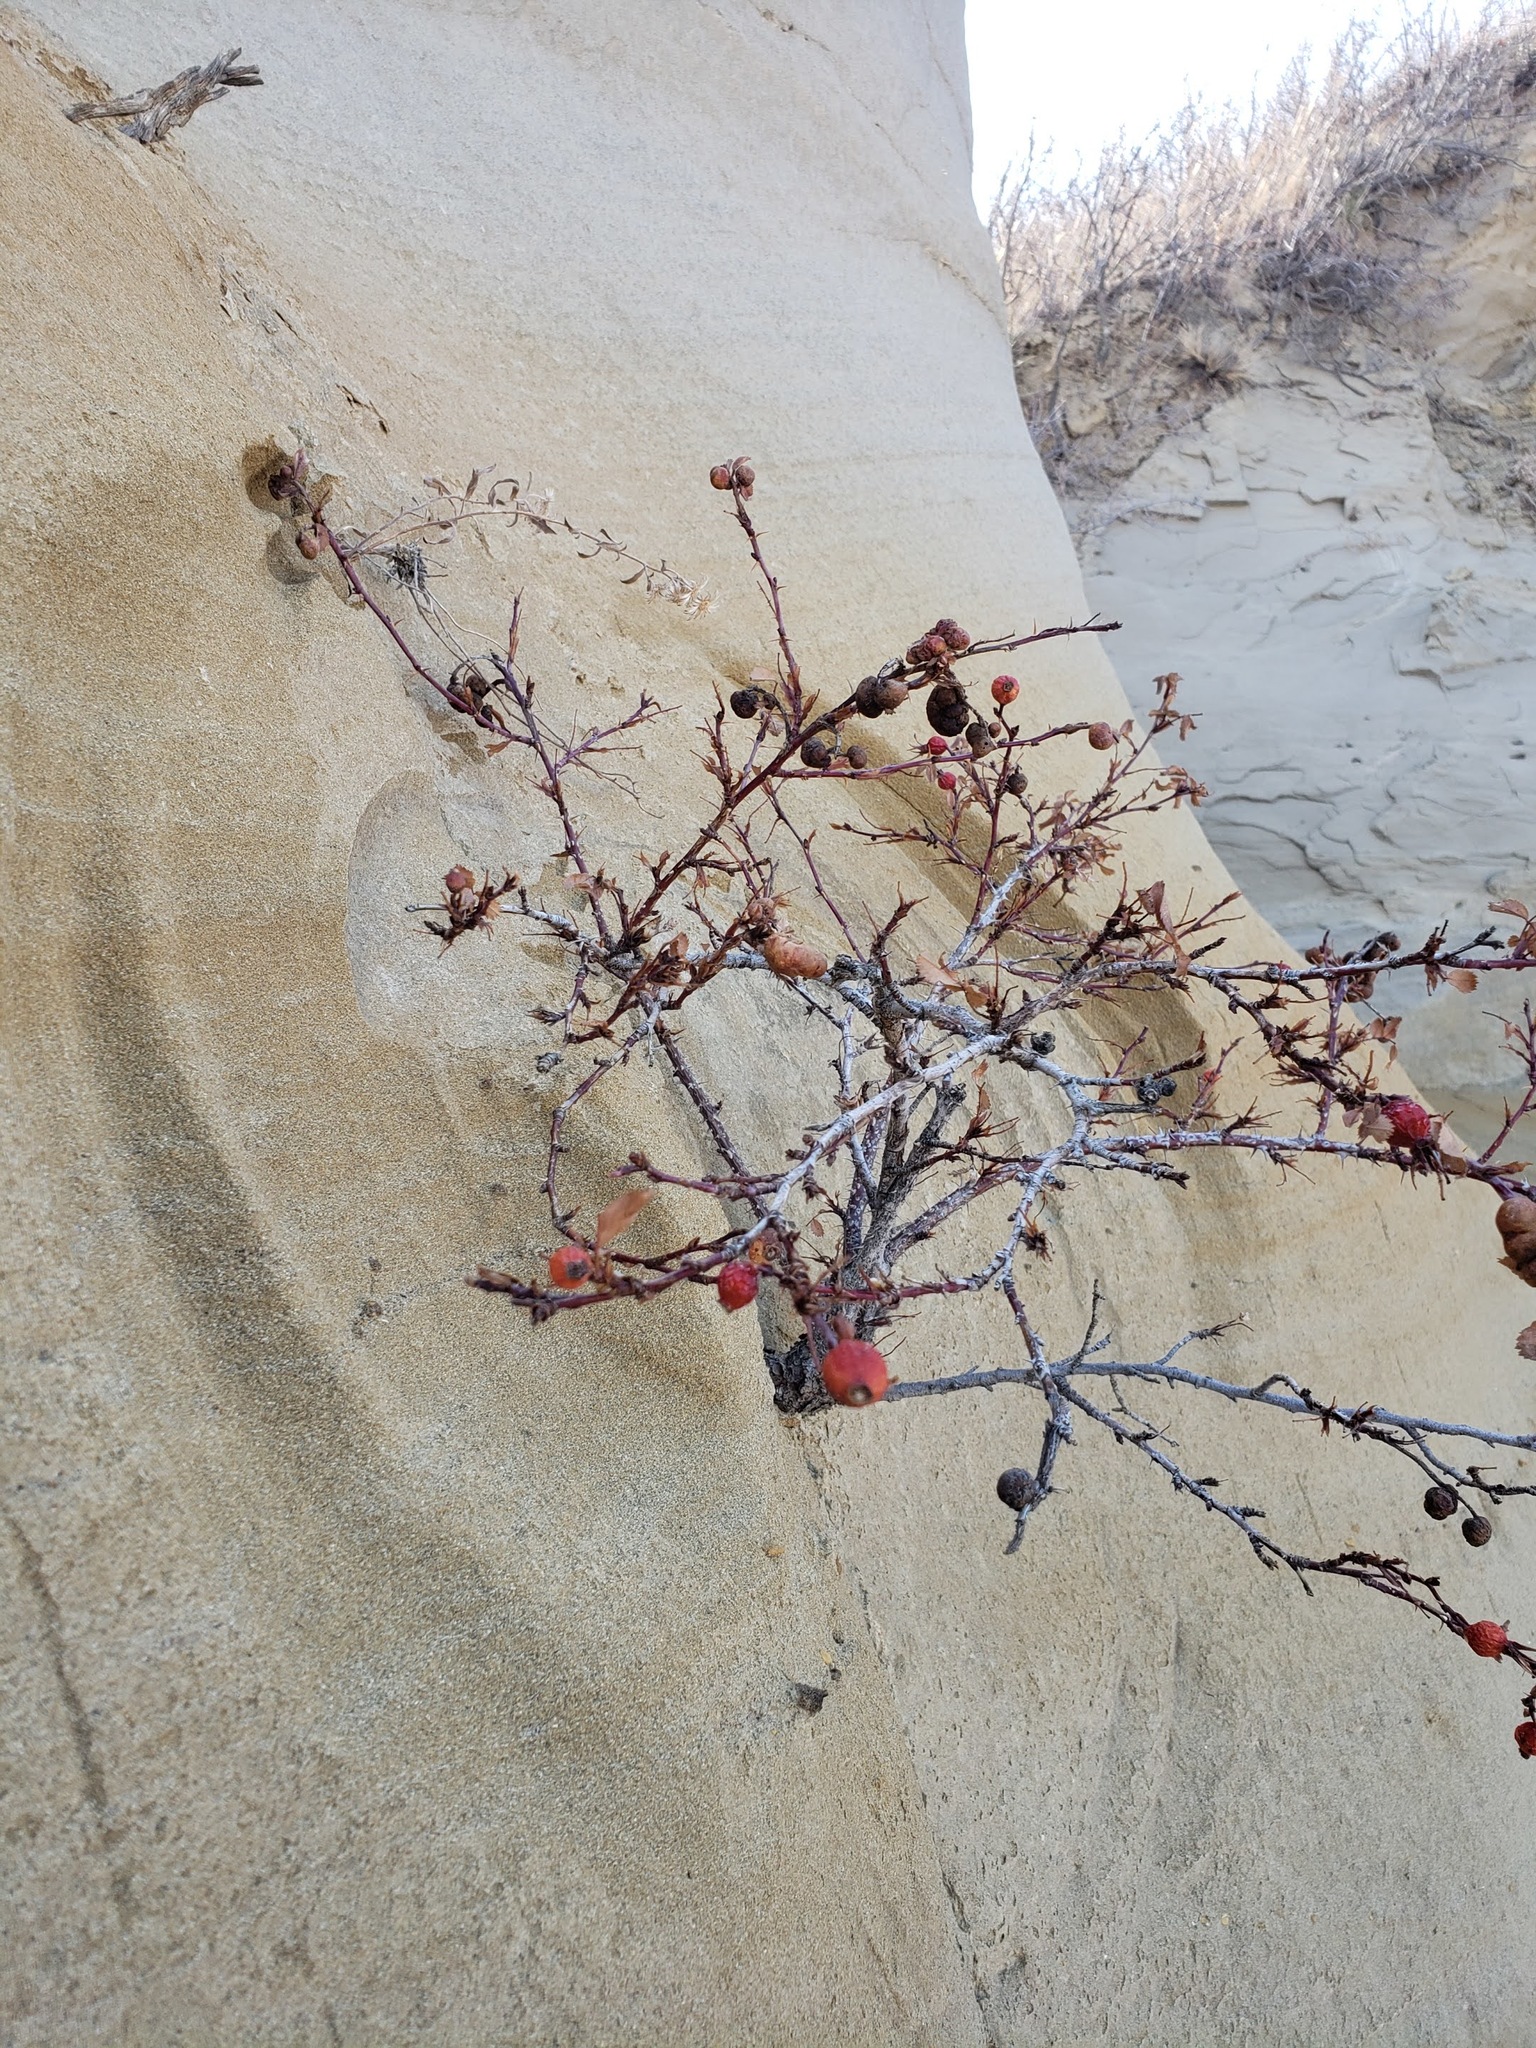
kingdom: Plantae
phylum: Tracheophyta
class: Magnoliopsida
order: Rosales
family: Rosaceae
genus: Rosa
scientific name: Rosa woodsii
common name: Woods's rose
